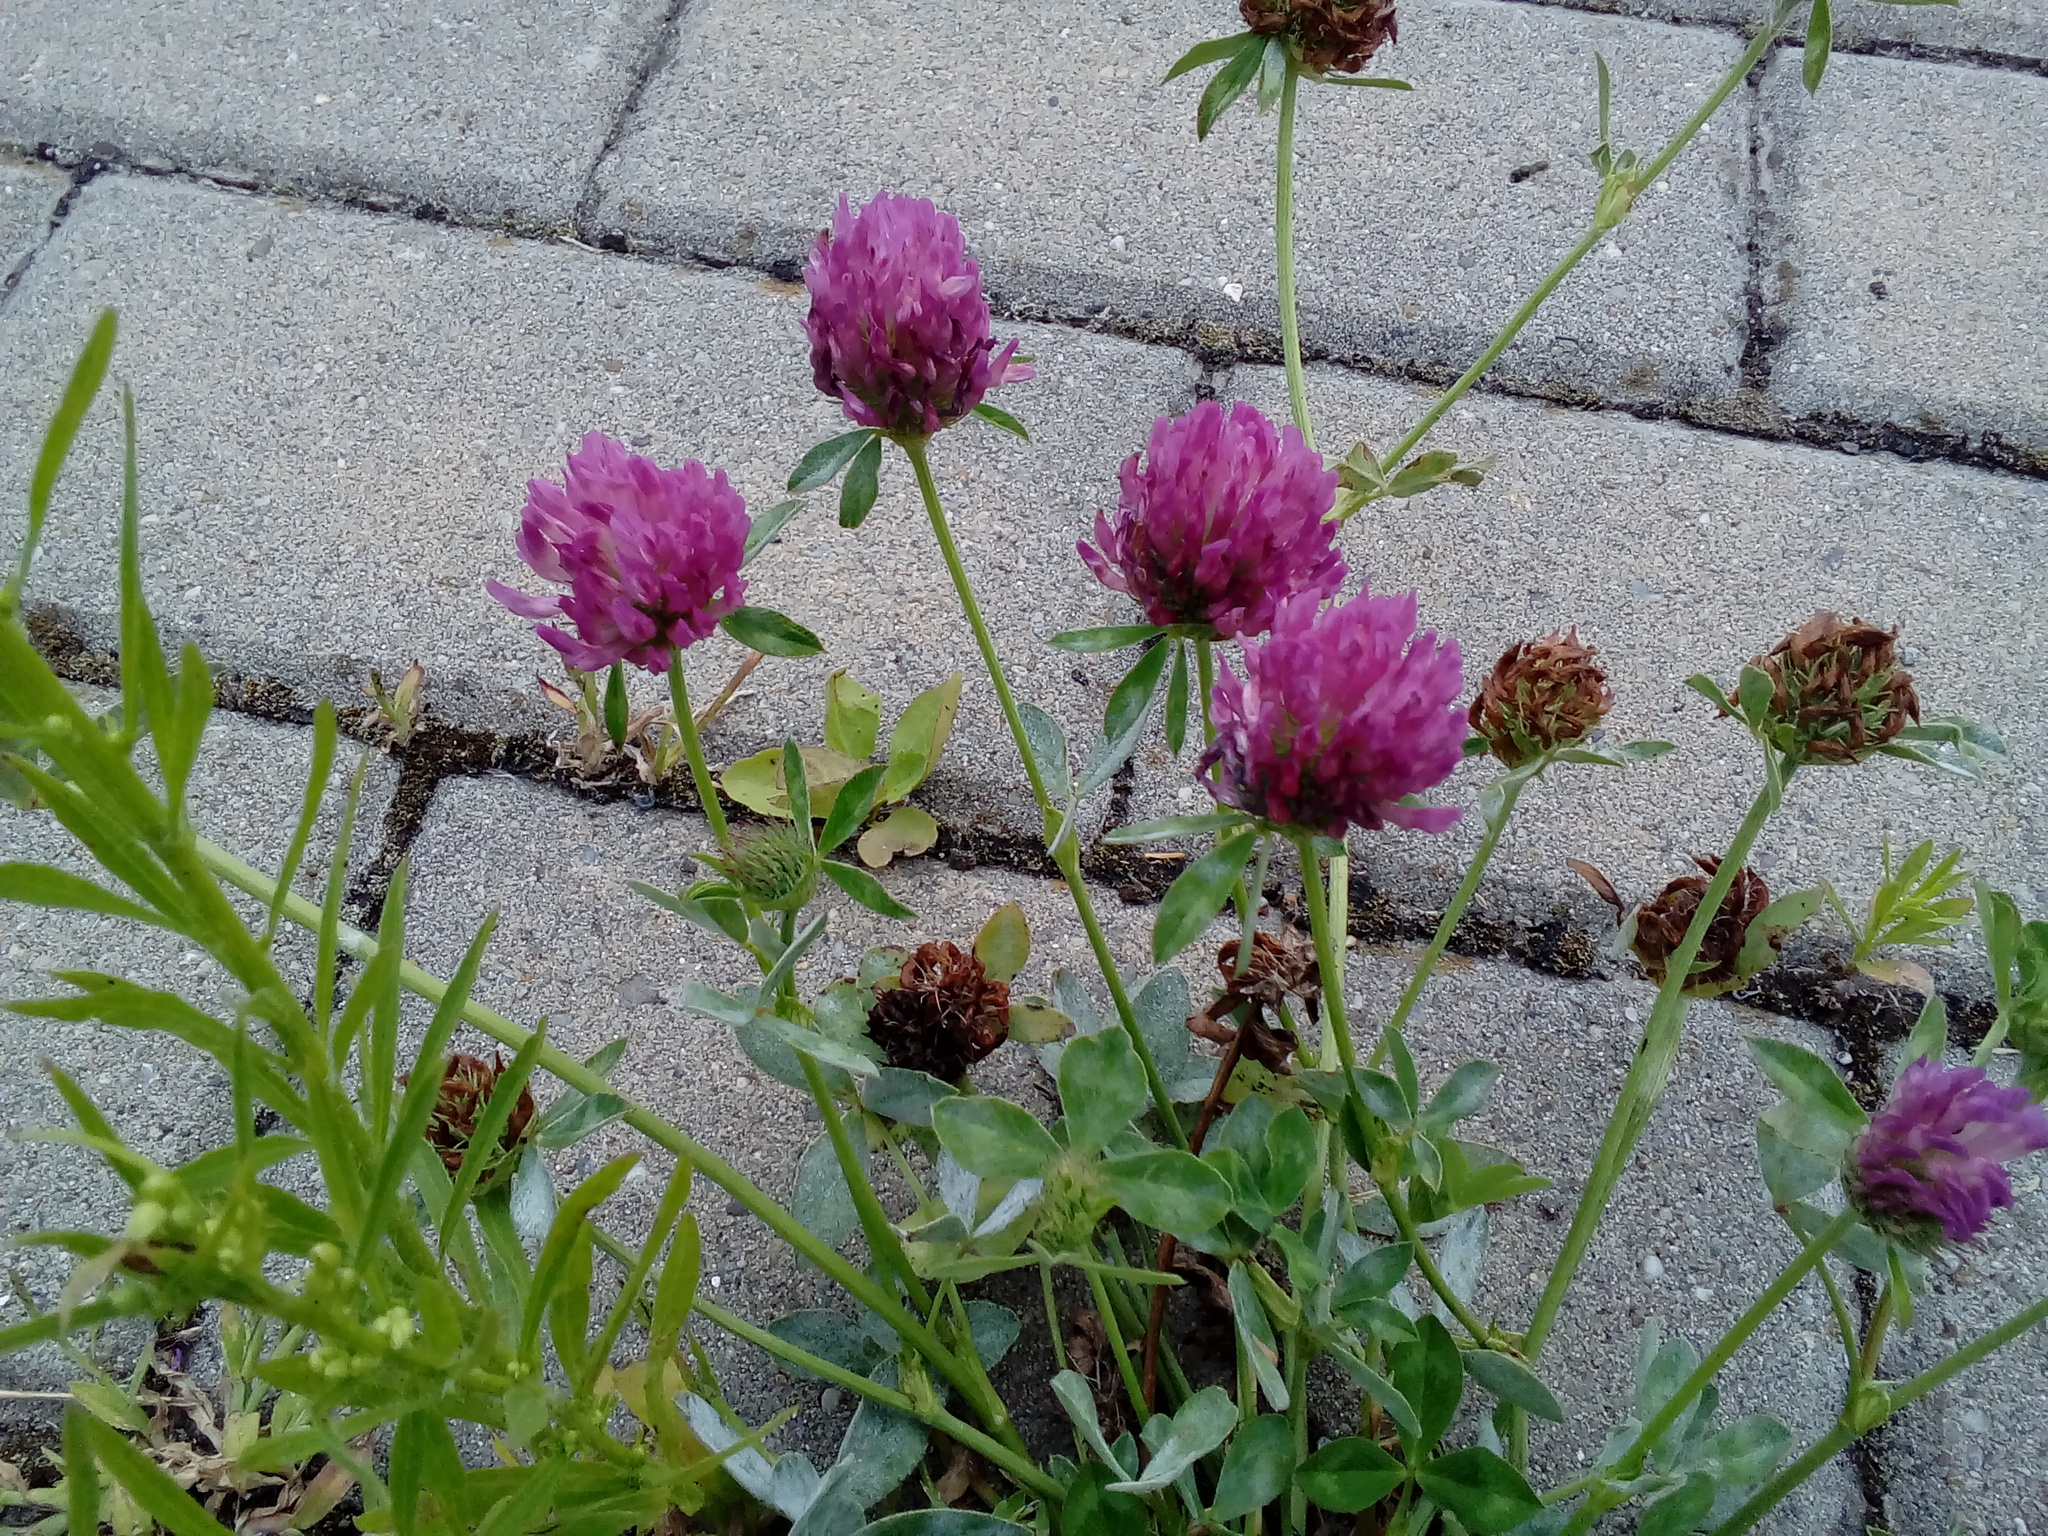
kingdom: Plantae
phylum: Tracheophyta
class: Magnoliopsida
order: Fabales
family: Fabaceae
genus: Trifolium
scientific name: Trifolium pratense
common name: Red clover
